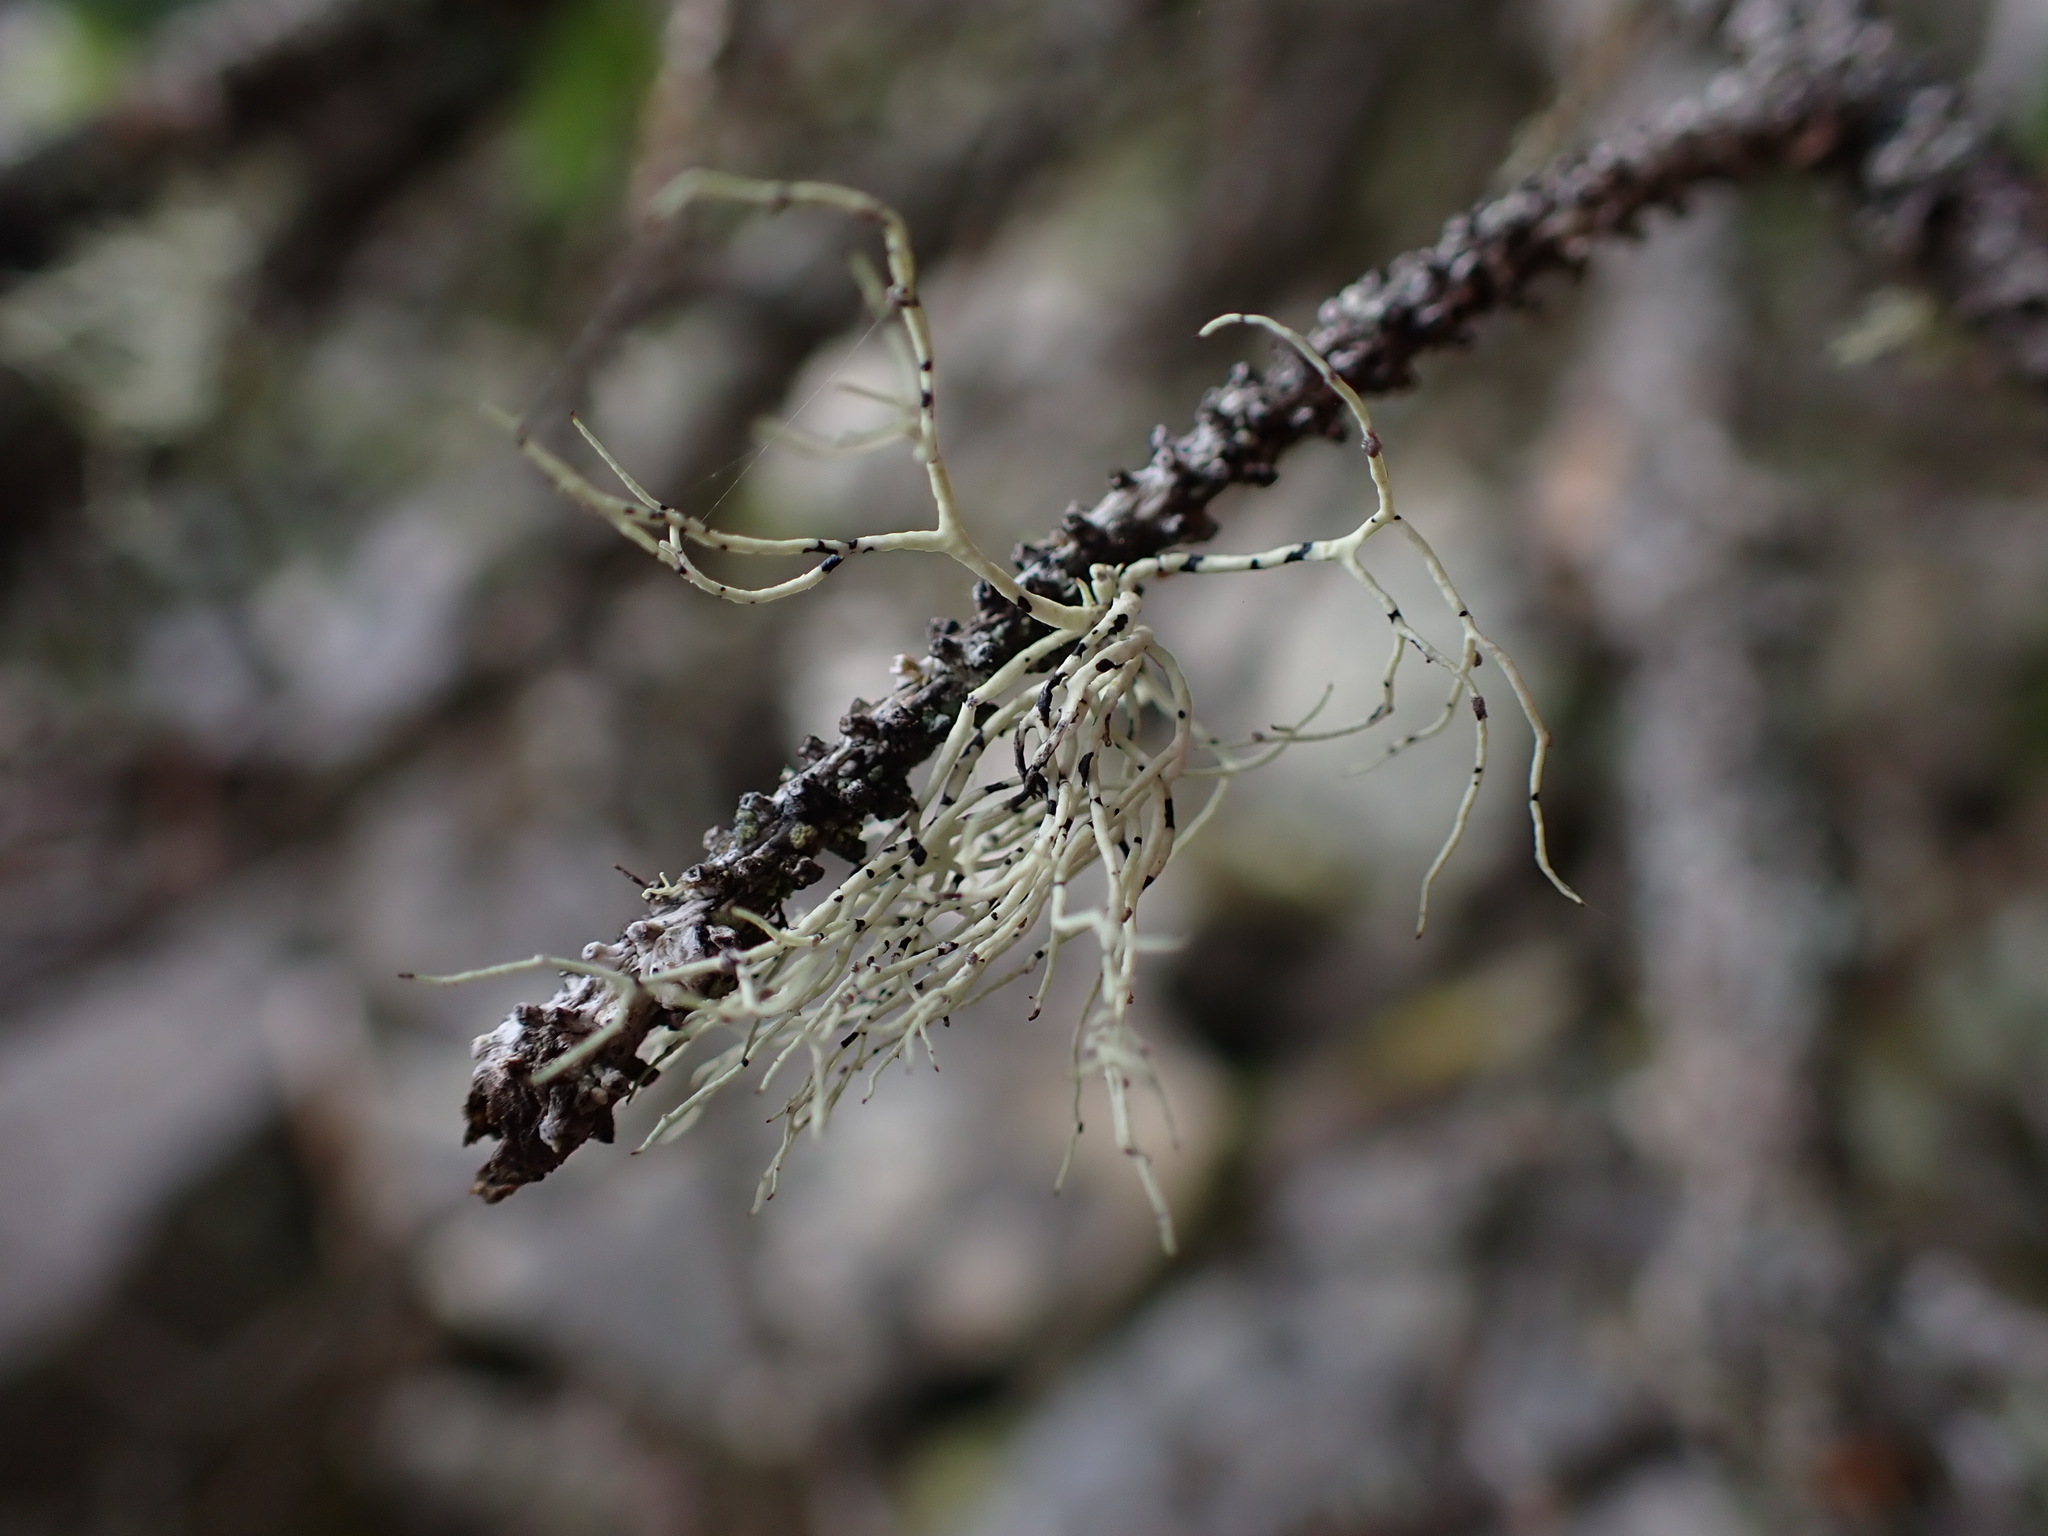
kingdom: Fungi
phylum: Ascomycota
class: Lecanoromycetes
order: Lecanorales
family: Ramalinaceae
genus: Niebla
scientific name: Niebla cephalota
